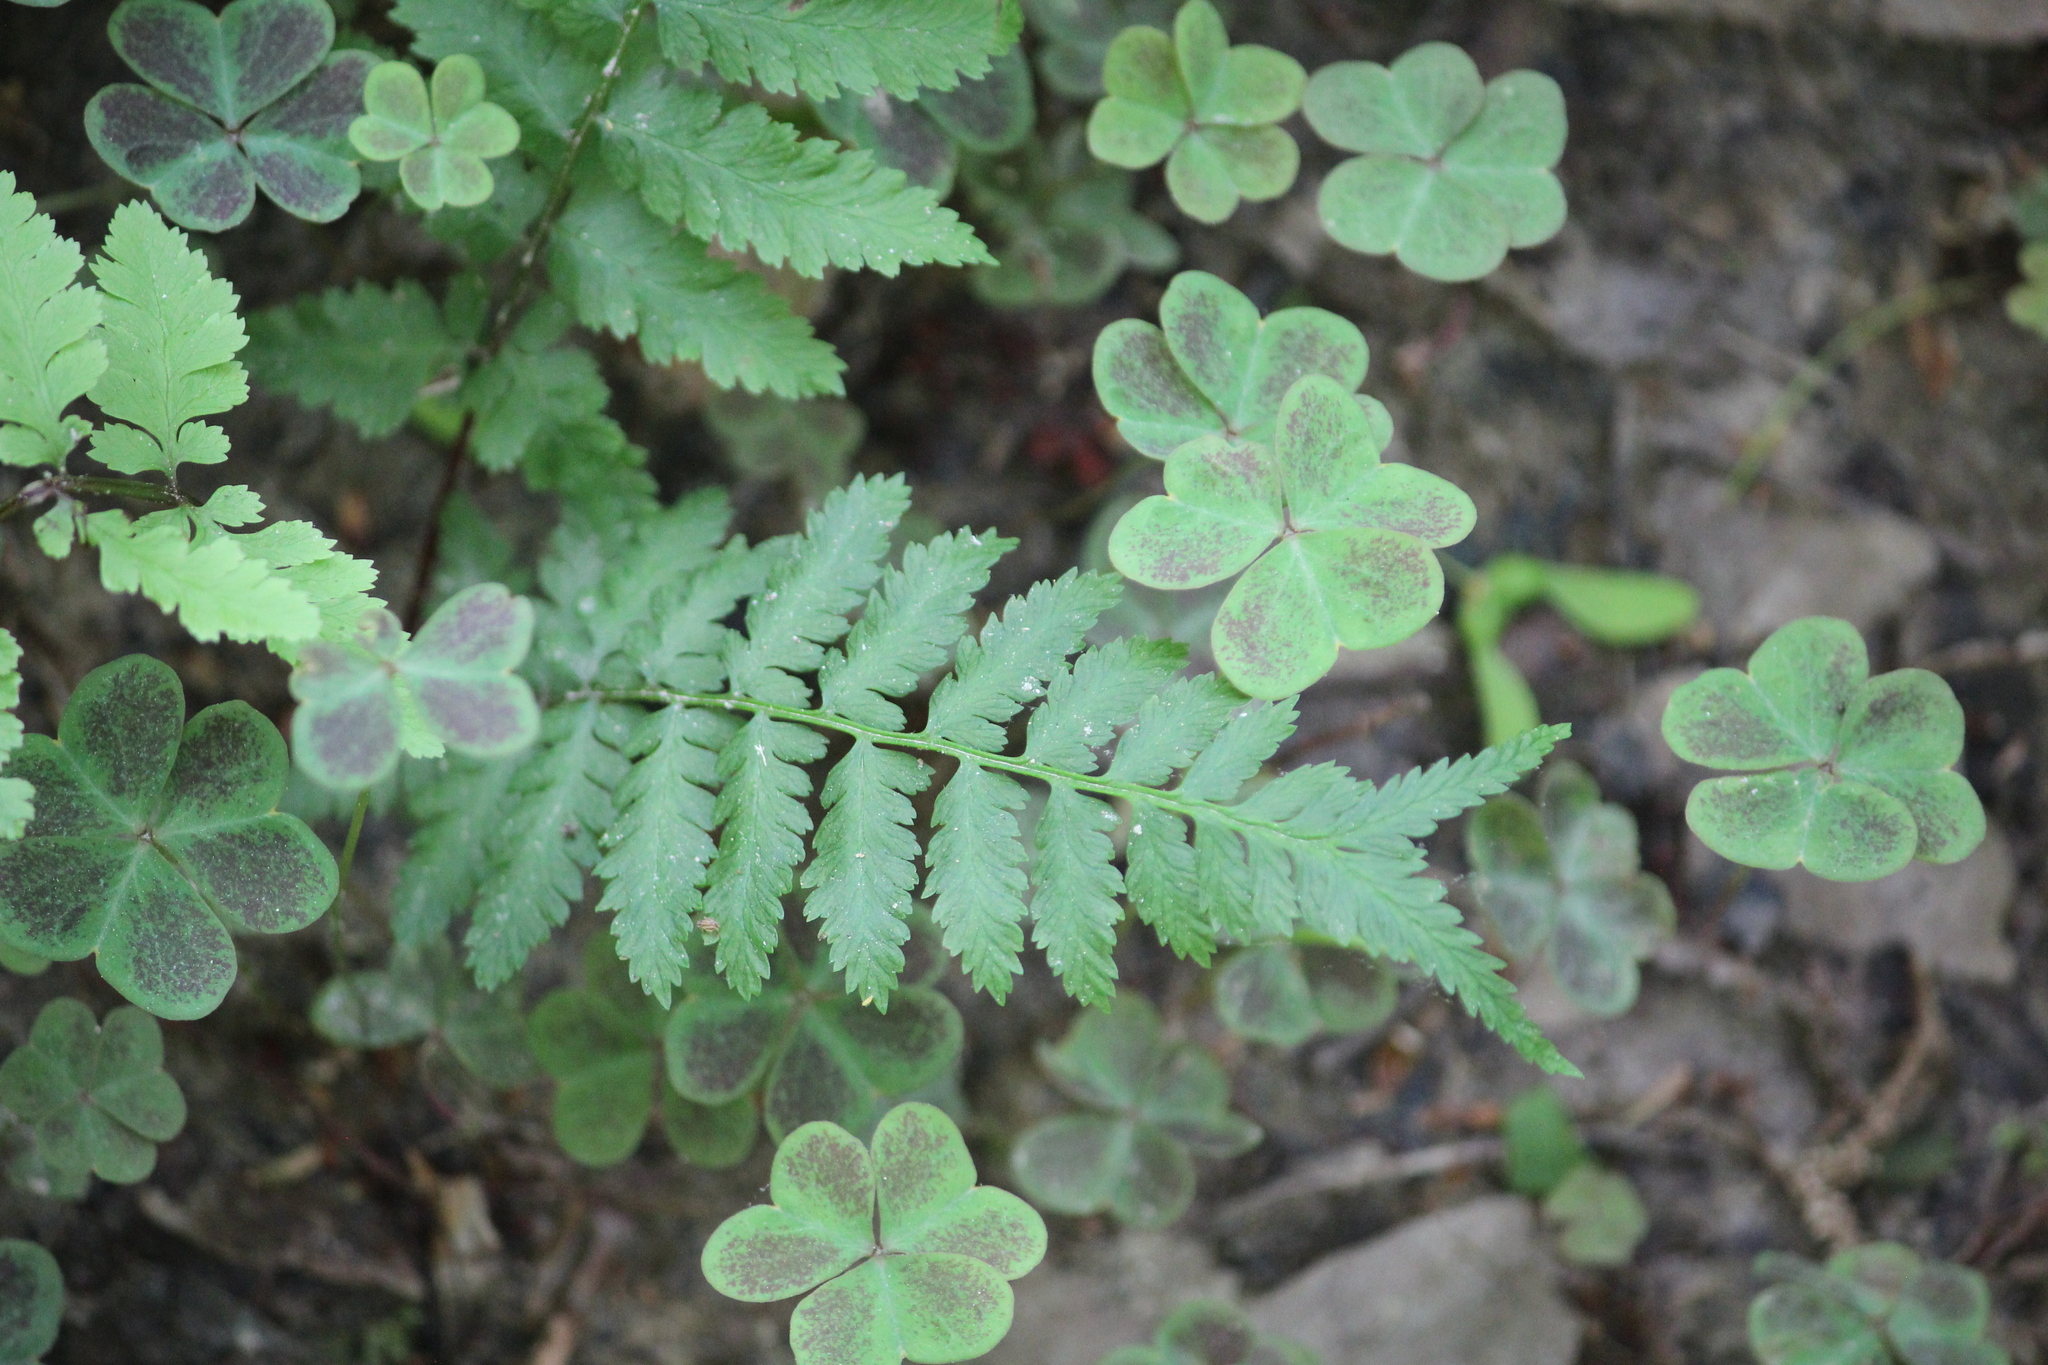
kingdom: Plantae
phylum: Tracheophyta
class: Polypodiopsida
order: Polypodiales
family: Athyriaceae
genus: Athyrium
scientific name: Athyrium asplenioides
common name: Southern lady fern
